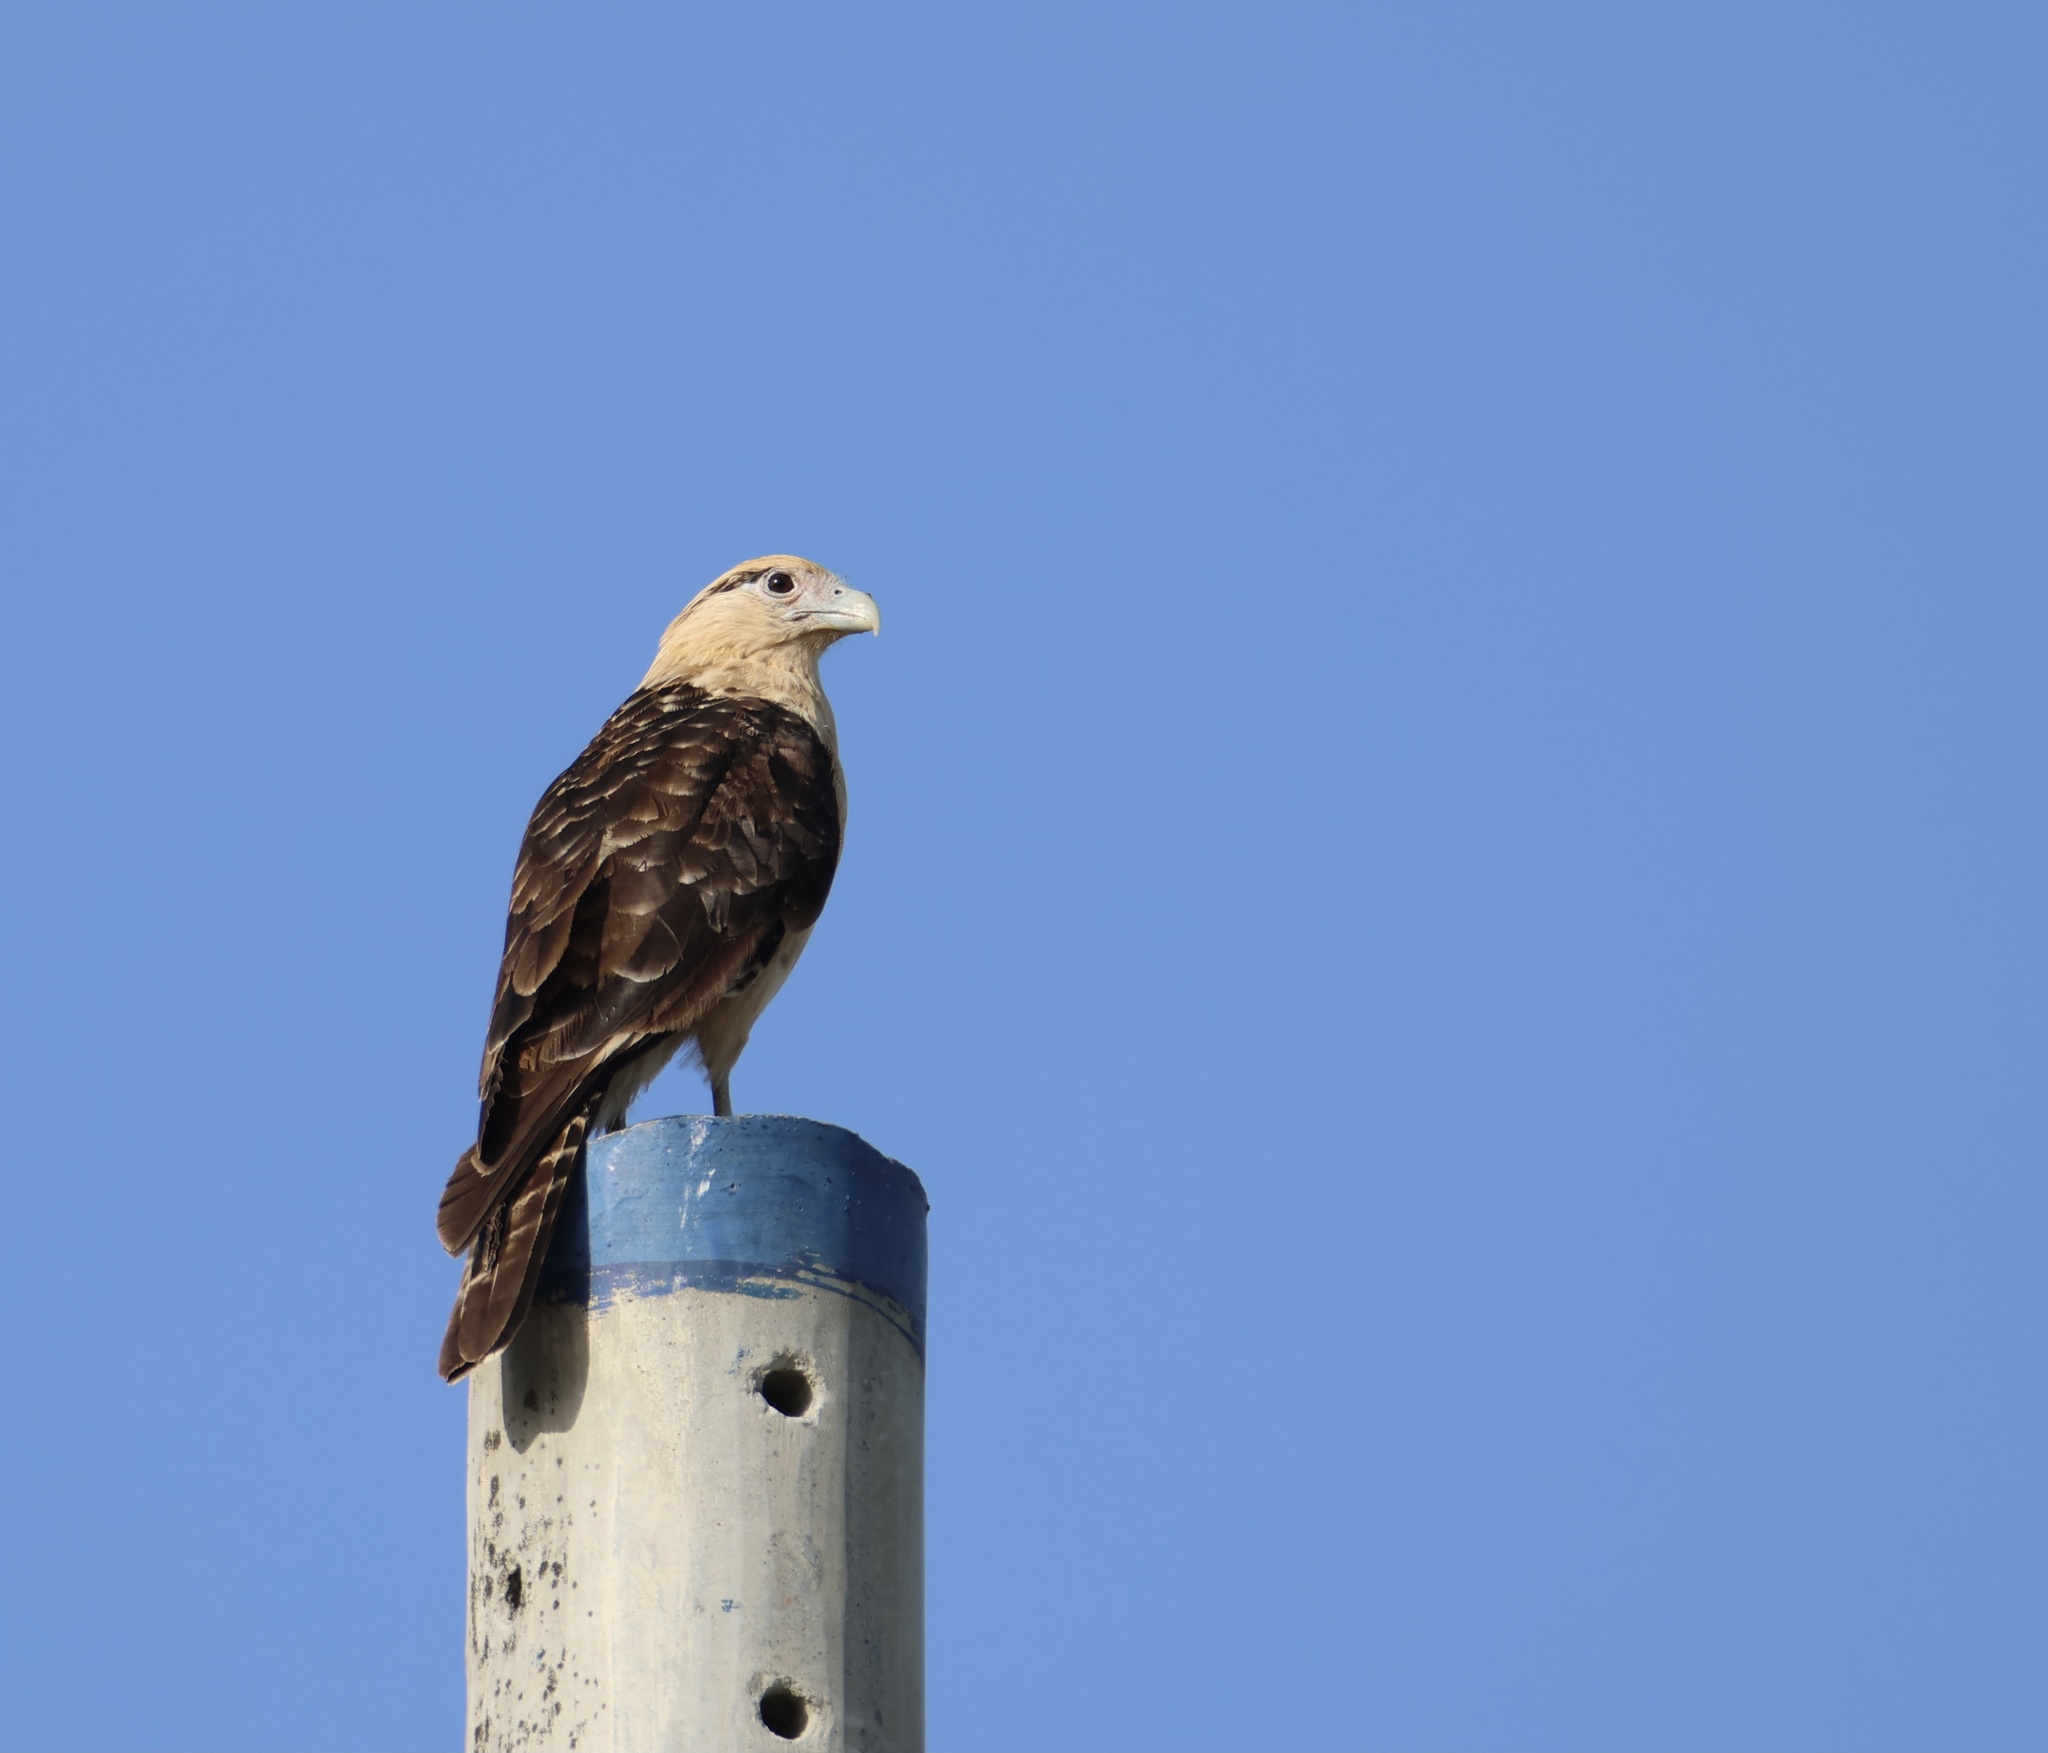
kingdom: Animalia
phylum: Chordata
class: Aves
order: Falconiformes
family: Falconidae
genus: Daptrius
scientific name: Daptrius
